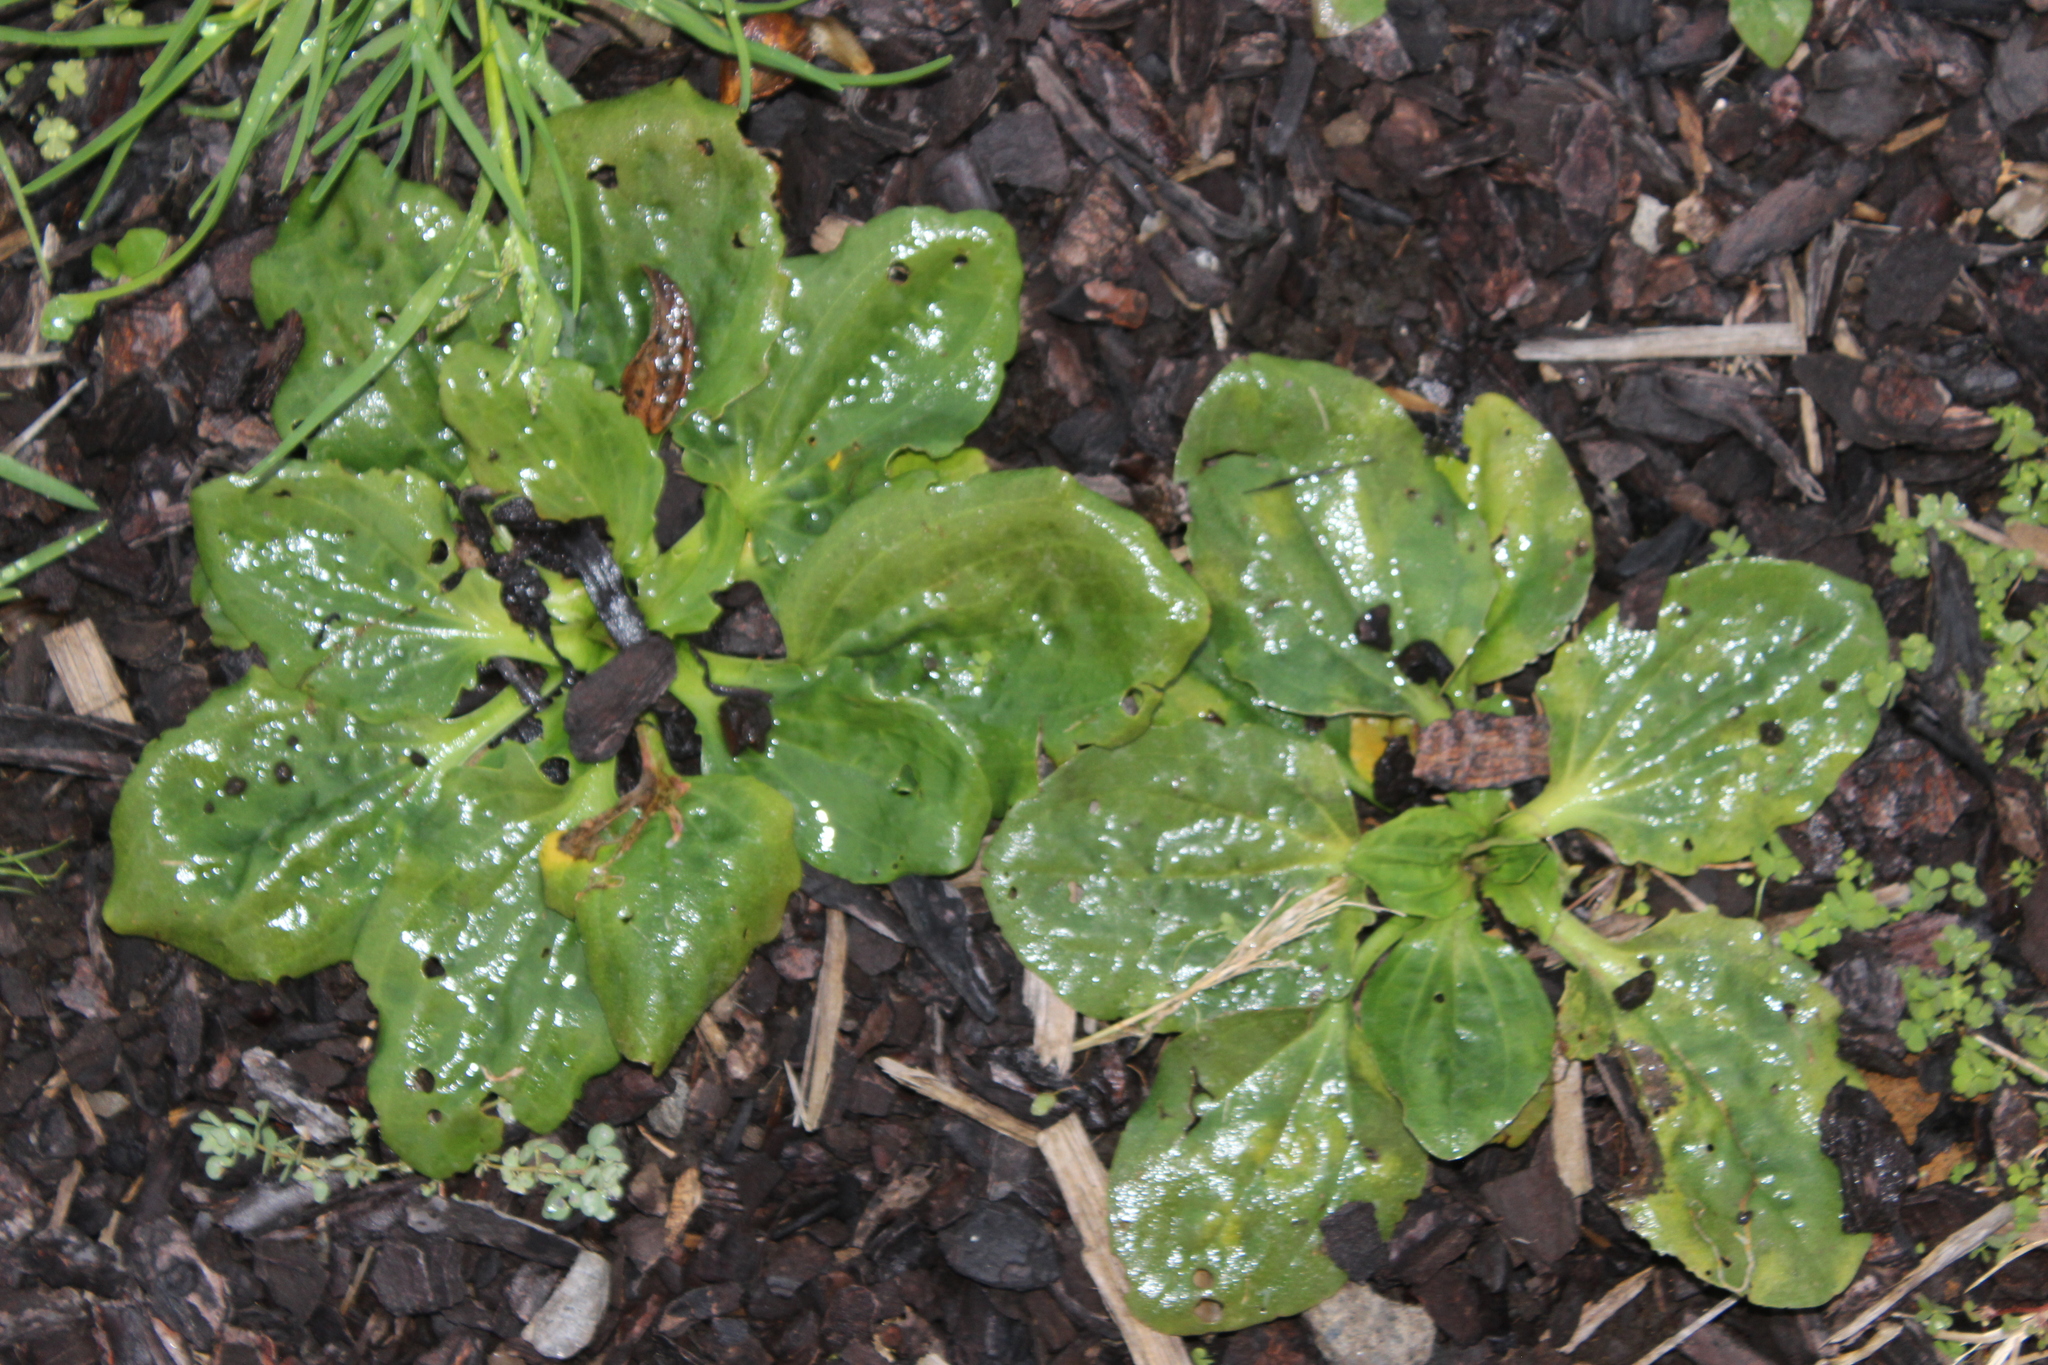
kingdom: Plantae
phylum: Tracheophyta
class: Magnoliopsida
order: Lamiales
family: Plantaginaceae
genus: Plantago
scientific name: Plantago major
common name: Common plantain
